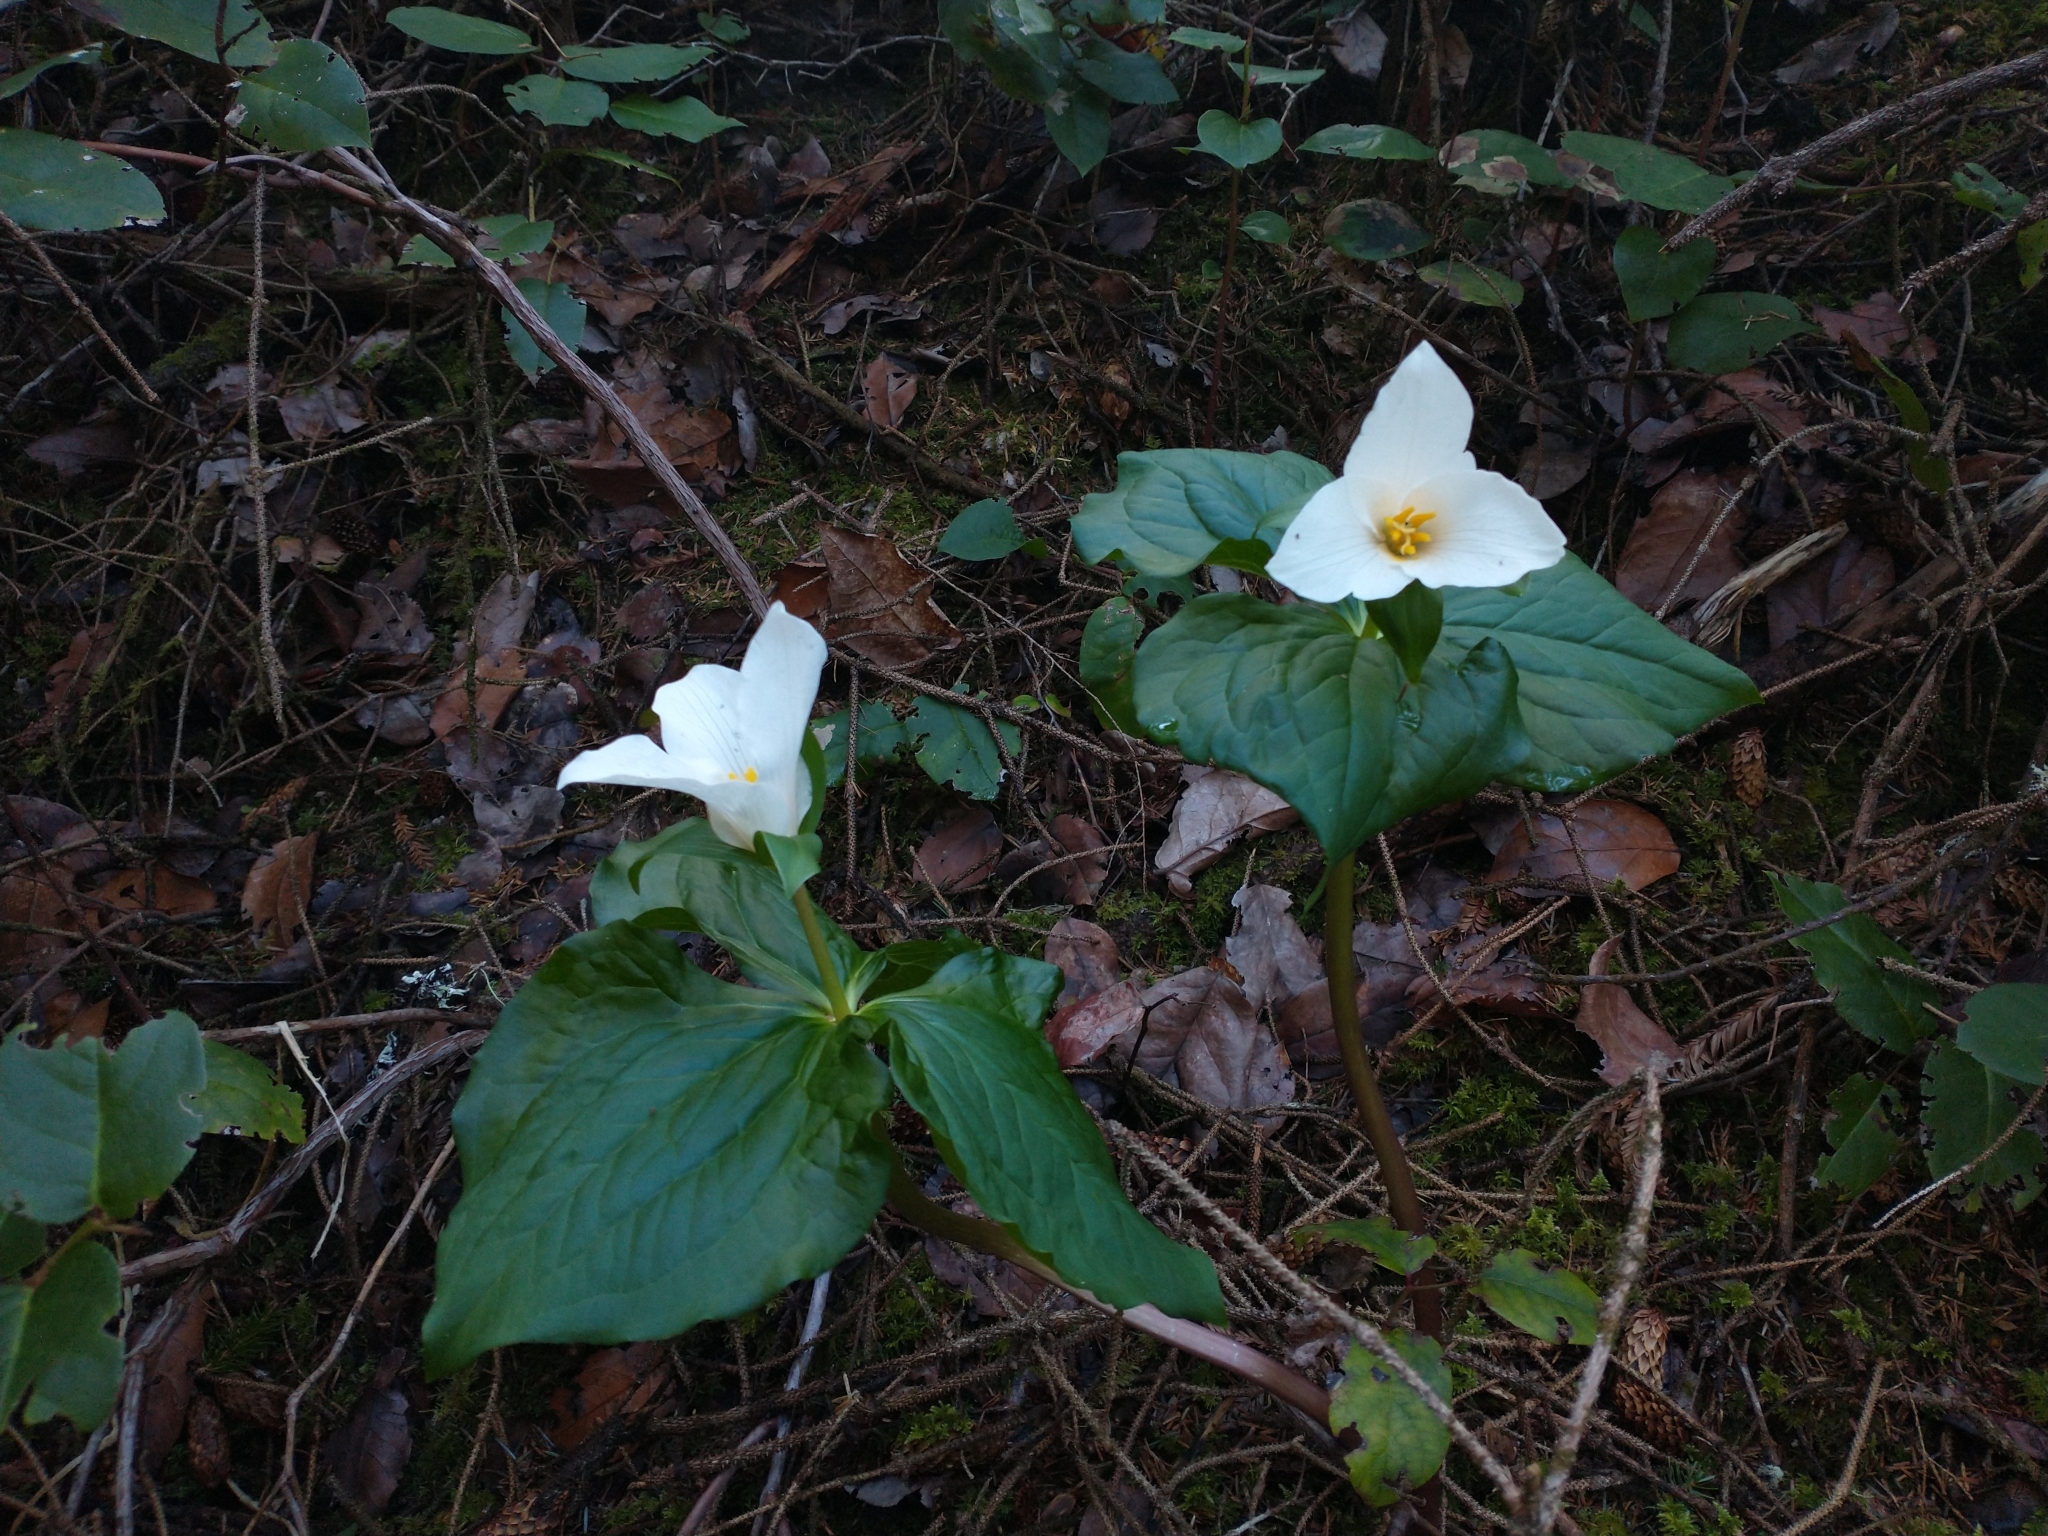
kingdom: Plantae
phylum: Tracheophyta
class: Liliopsida
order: Liliales
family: Melanthiaceae
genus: Trillium
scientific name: Trillium ovatum
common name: Pacific trillium
